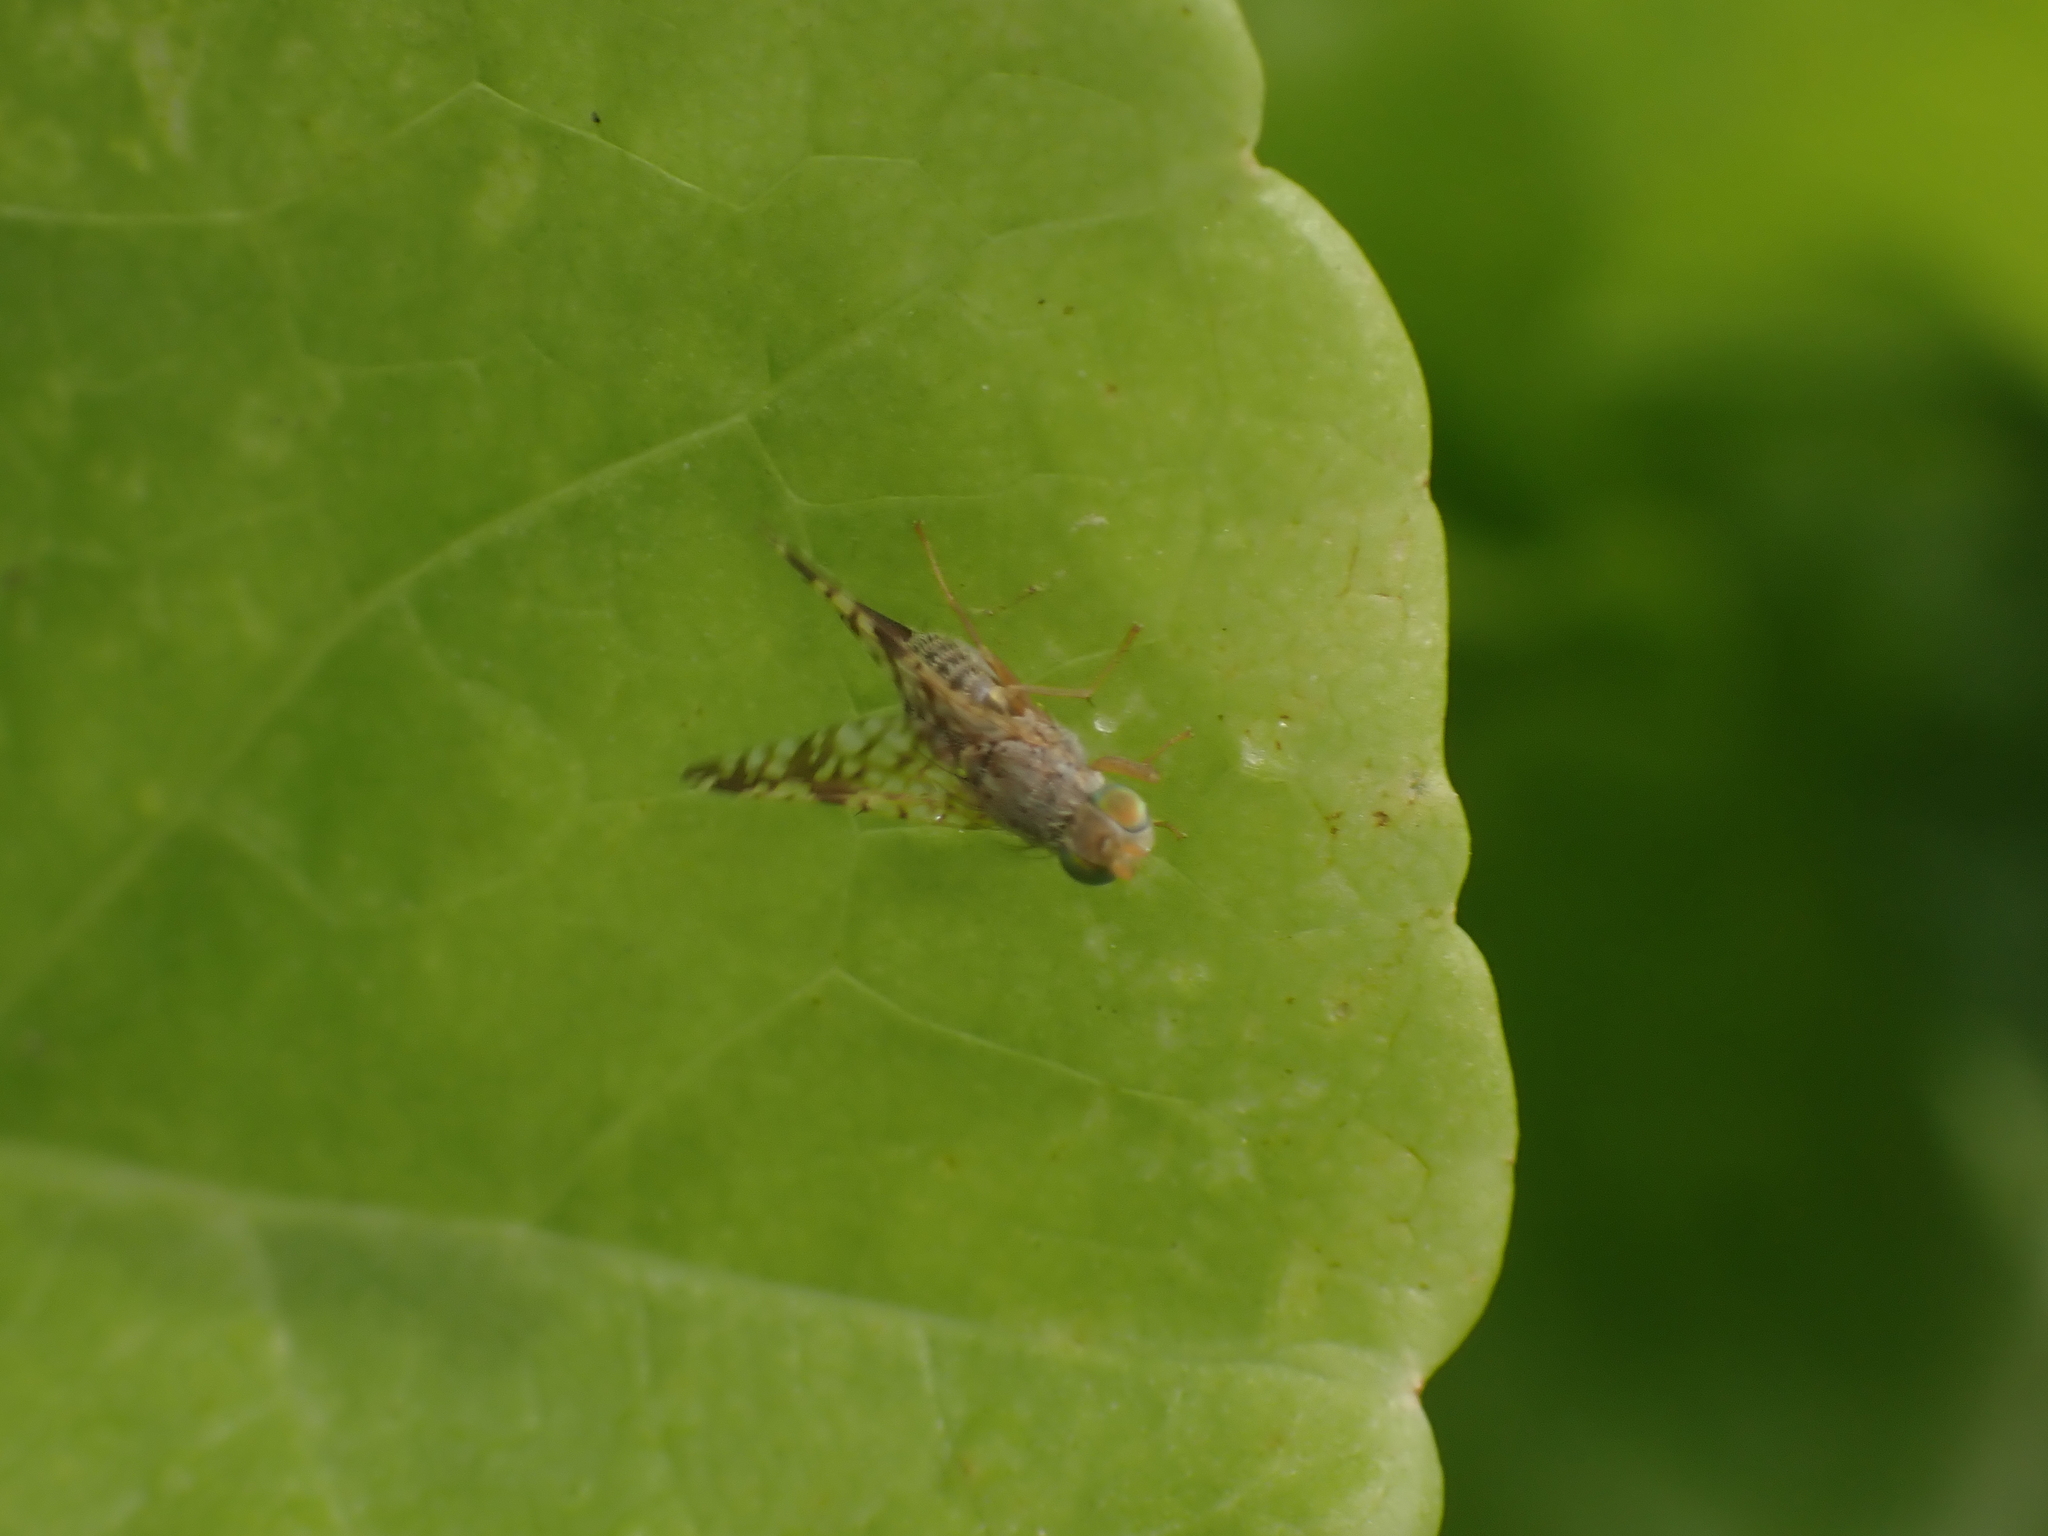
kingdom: Animalia
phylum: Arthropoda
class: Insecta
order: Diptera
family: Tephritidae
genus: Neotephritis
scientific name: Neotephritis finalis
